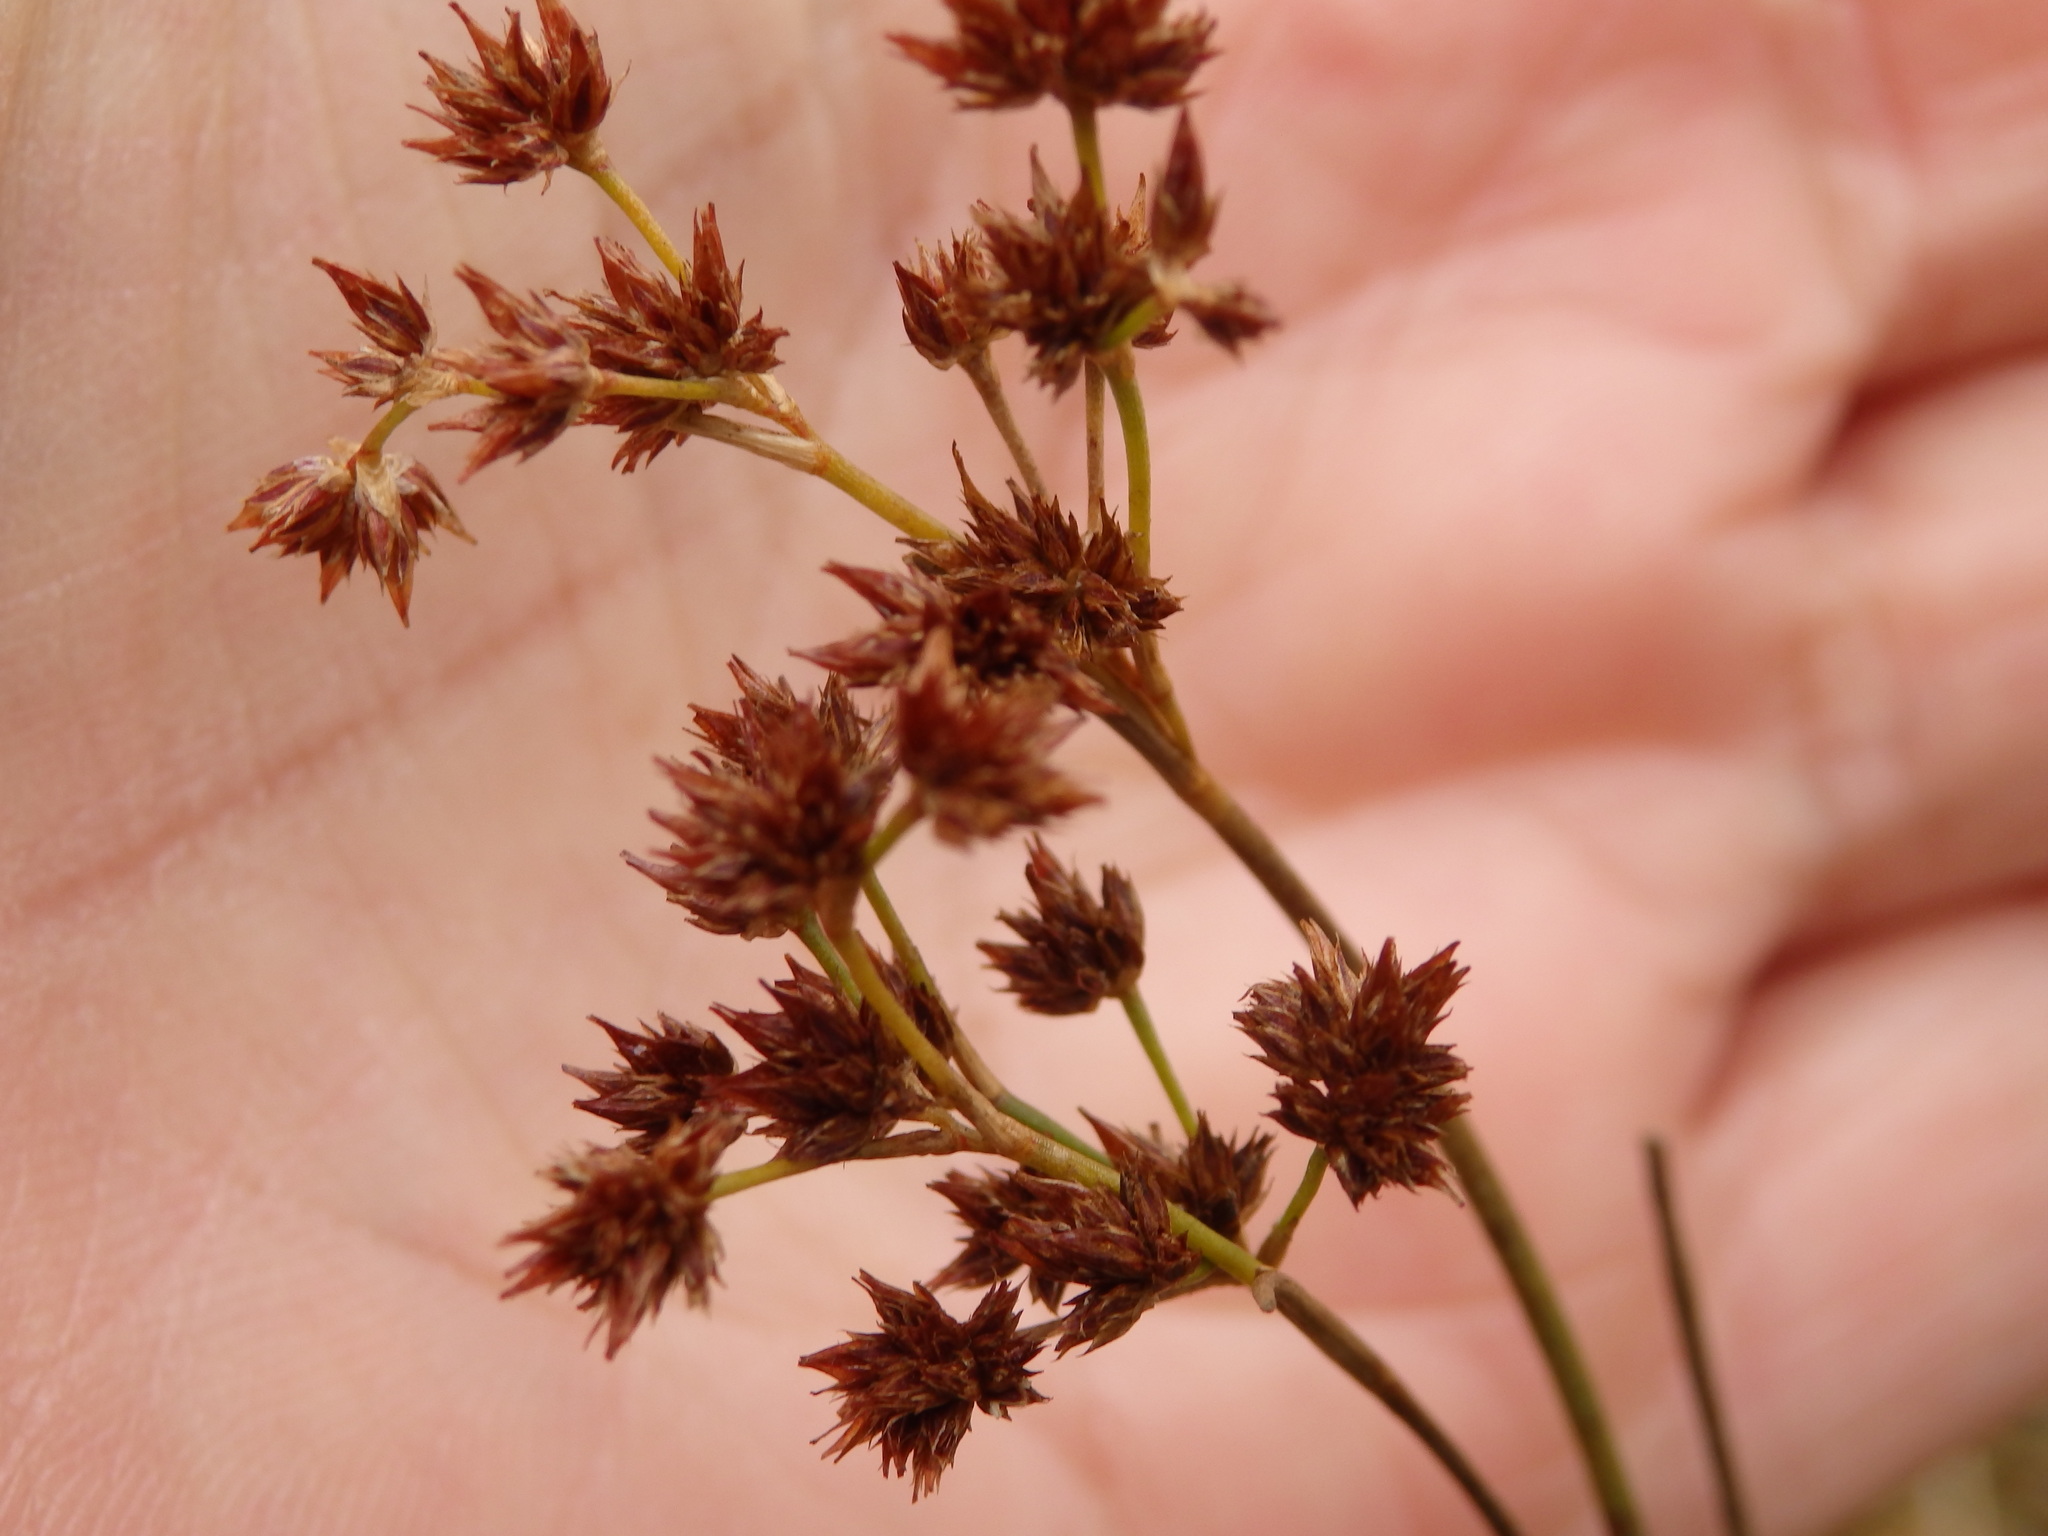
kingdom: Plantae
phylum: Tracheophyta
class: Liliopsida
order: Poales
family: Juncaceae
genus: Juncus
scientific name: Juncus acutiflorus
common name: Sharp-flowered rush
